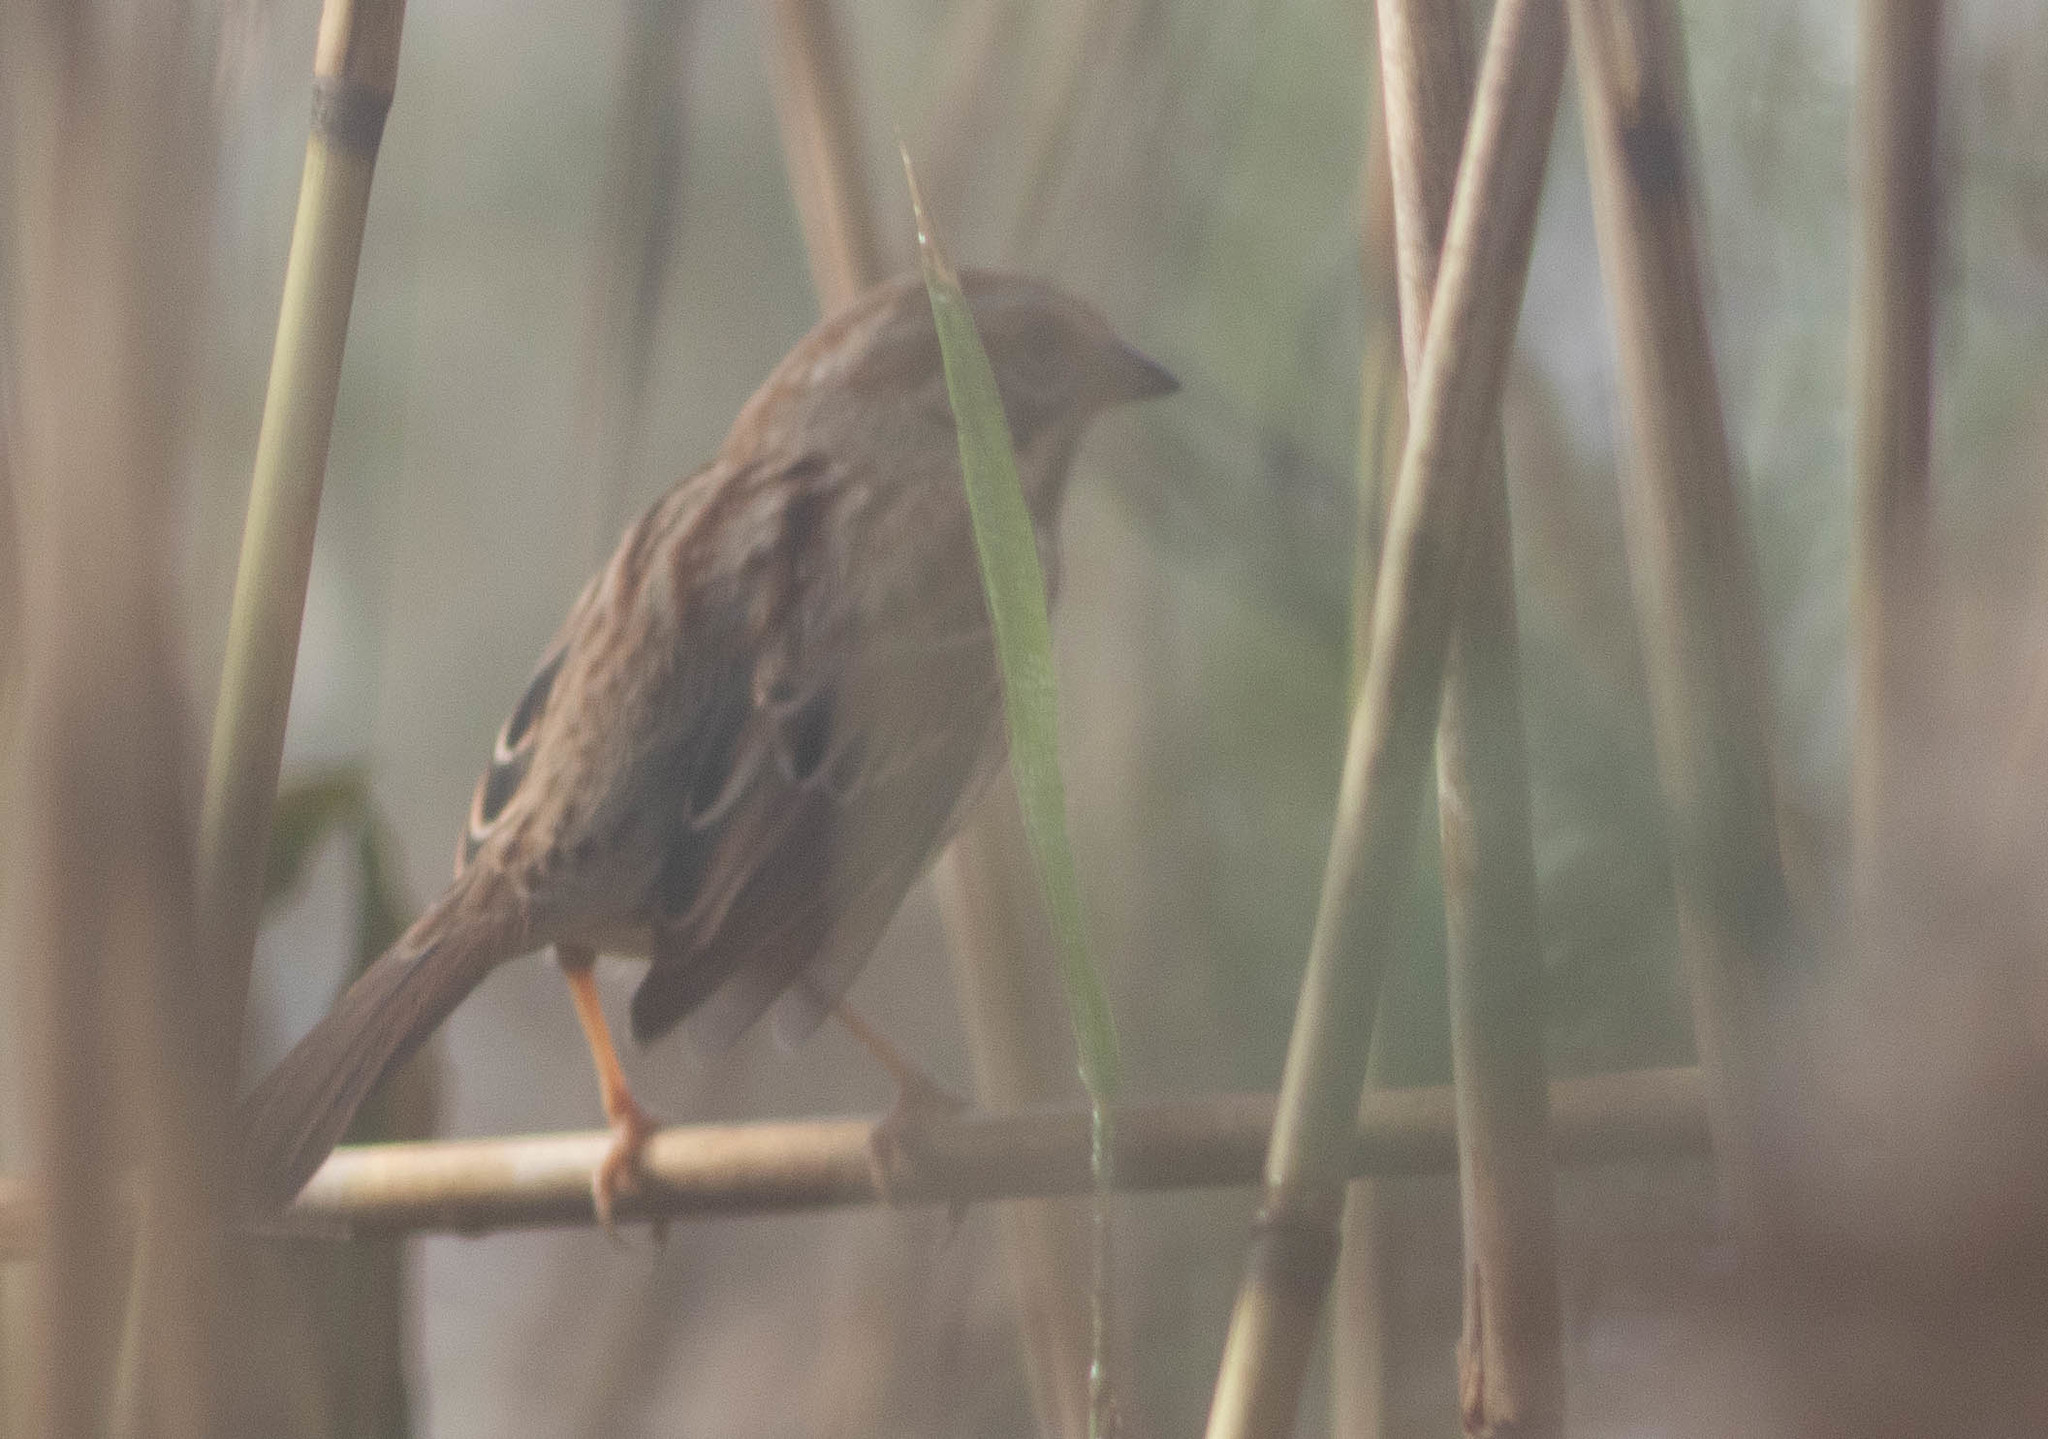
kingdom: Animalia
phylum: Chordata
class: Aves
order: Passeriformes
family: Passerellidae
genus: Melospiza
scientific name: Melospiza melodia
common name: Song sparrow
